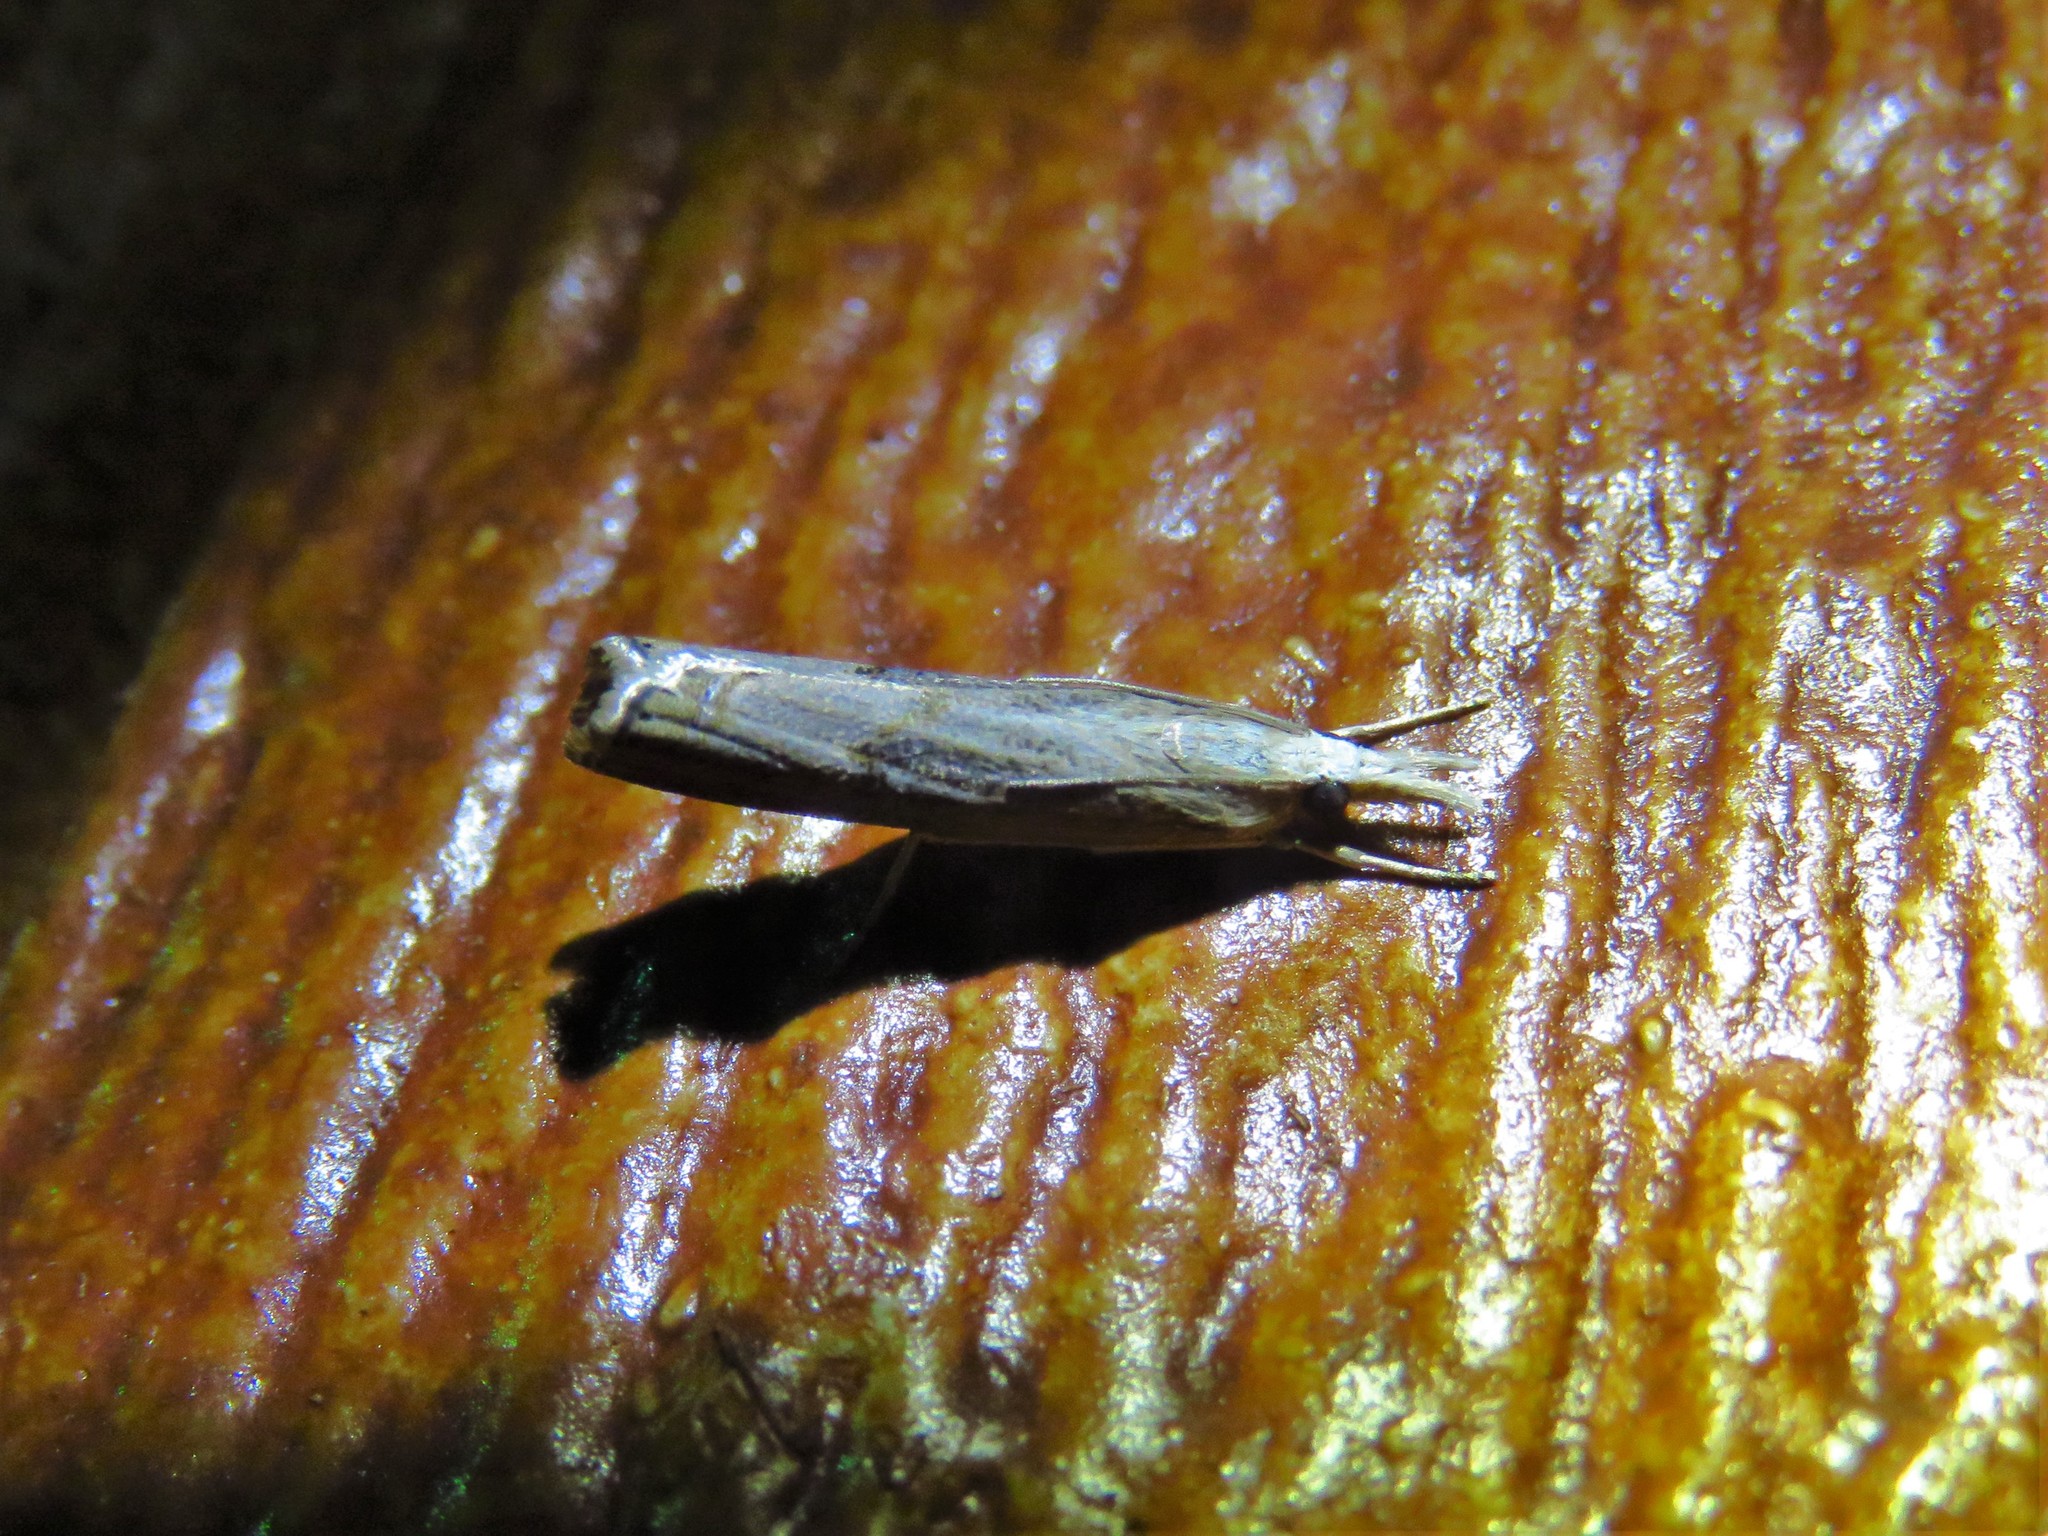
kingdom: Animalia
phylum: Arthropoda
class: Insecta
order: Lepidoptera
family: Crambidae
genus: Parapediasia
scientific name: Parapediasia teterellus
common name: Bluegrass webworm moth
